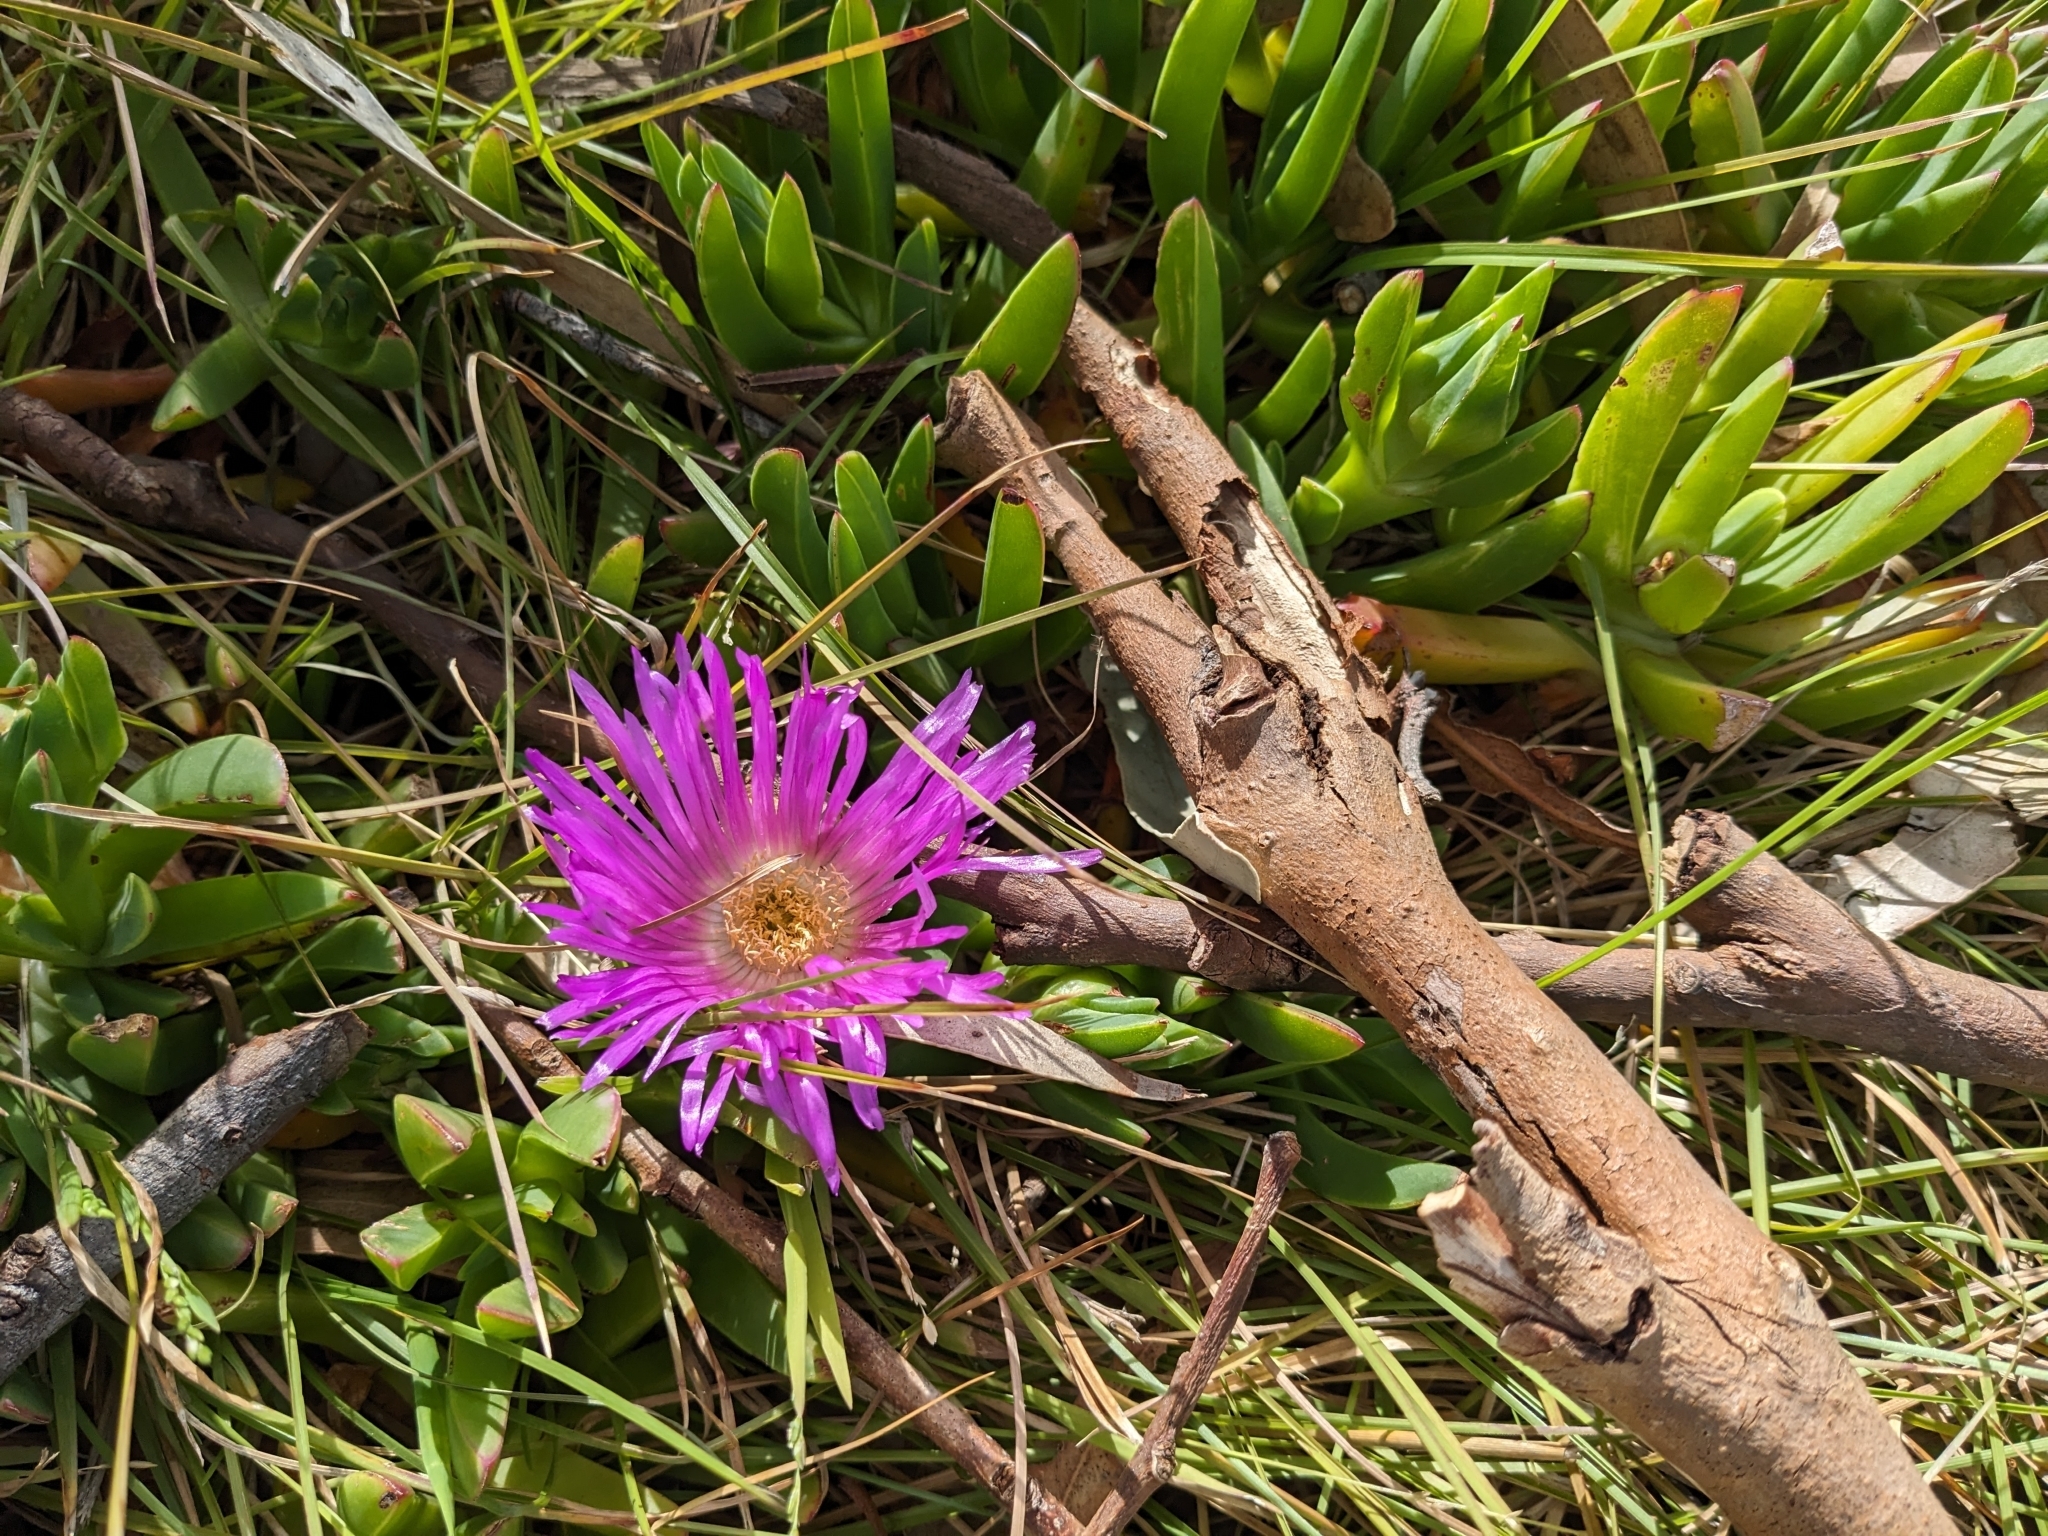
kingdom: Plantae
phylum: Tracheophyta
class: Magnoliopsida
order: Caryophyllales
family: Aizoaceae
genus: Carpobrotus
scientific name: Carpobrotus rossii
